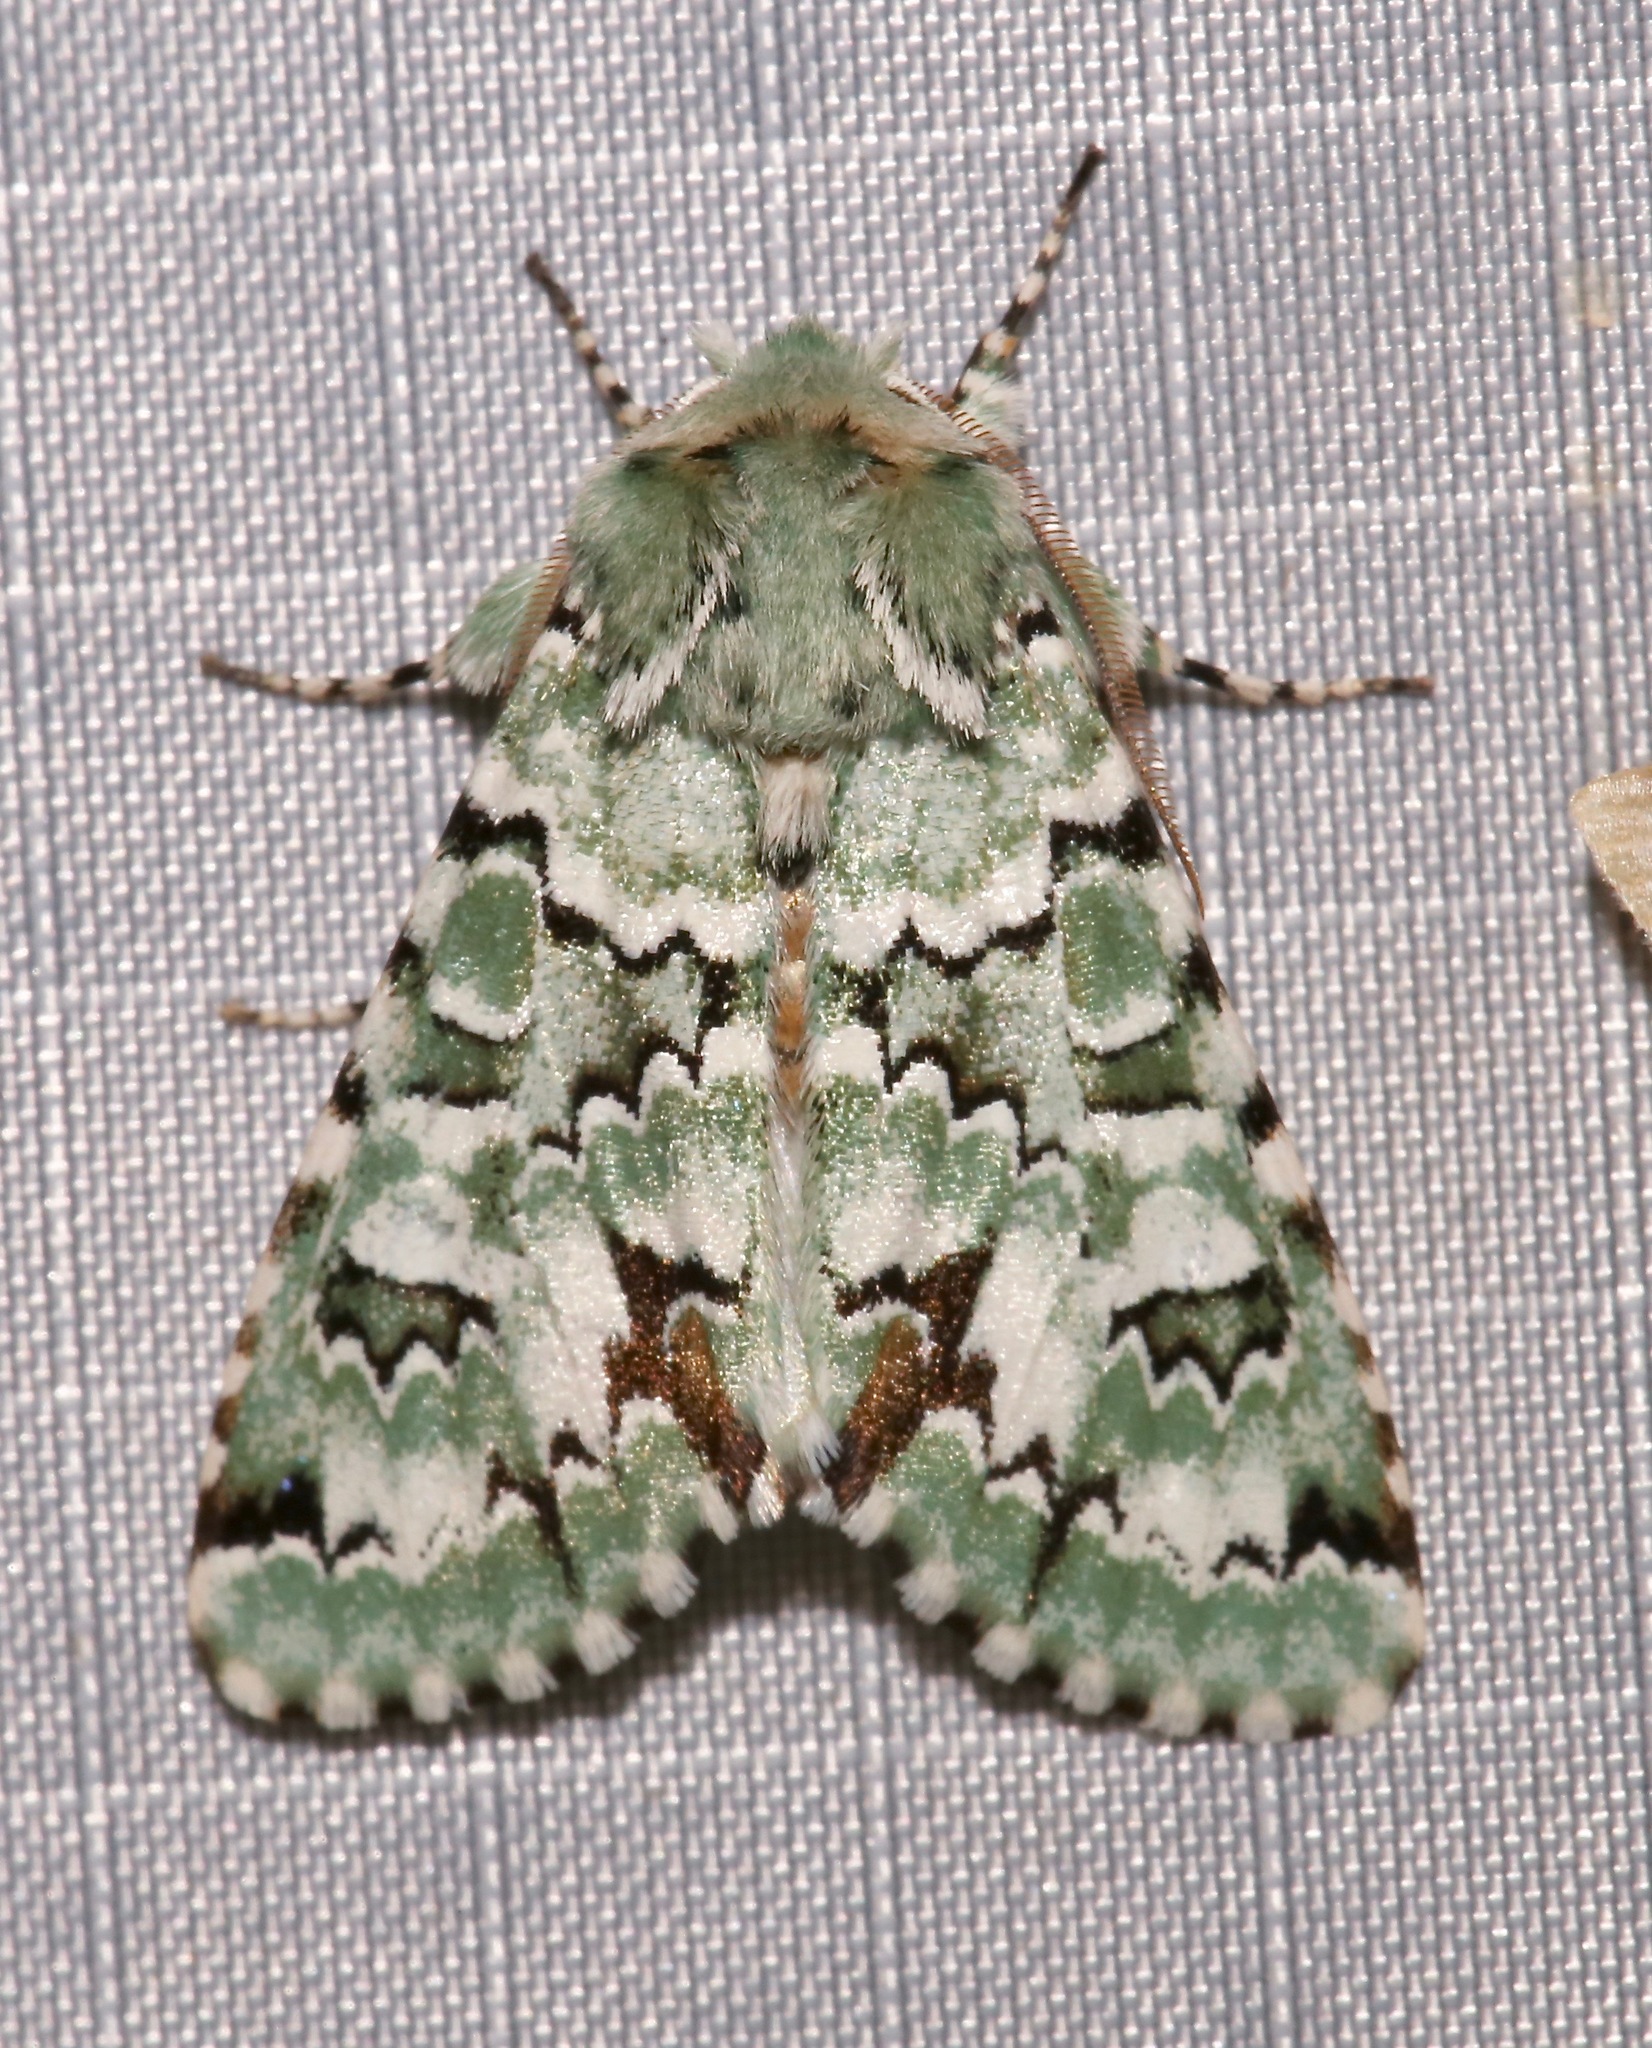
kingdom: Animalia
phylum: Arthropoda
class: Insecta
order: Lepidoptera
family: Noctuidae
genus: Miracavira
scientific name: Miracavira brillians
